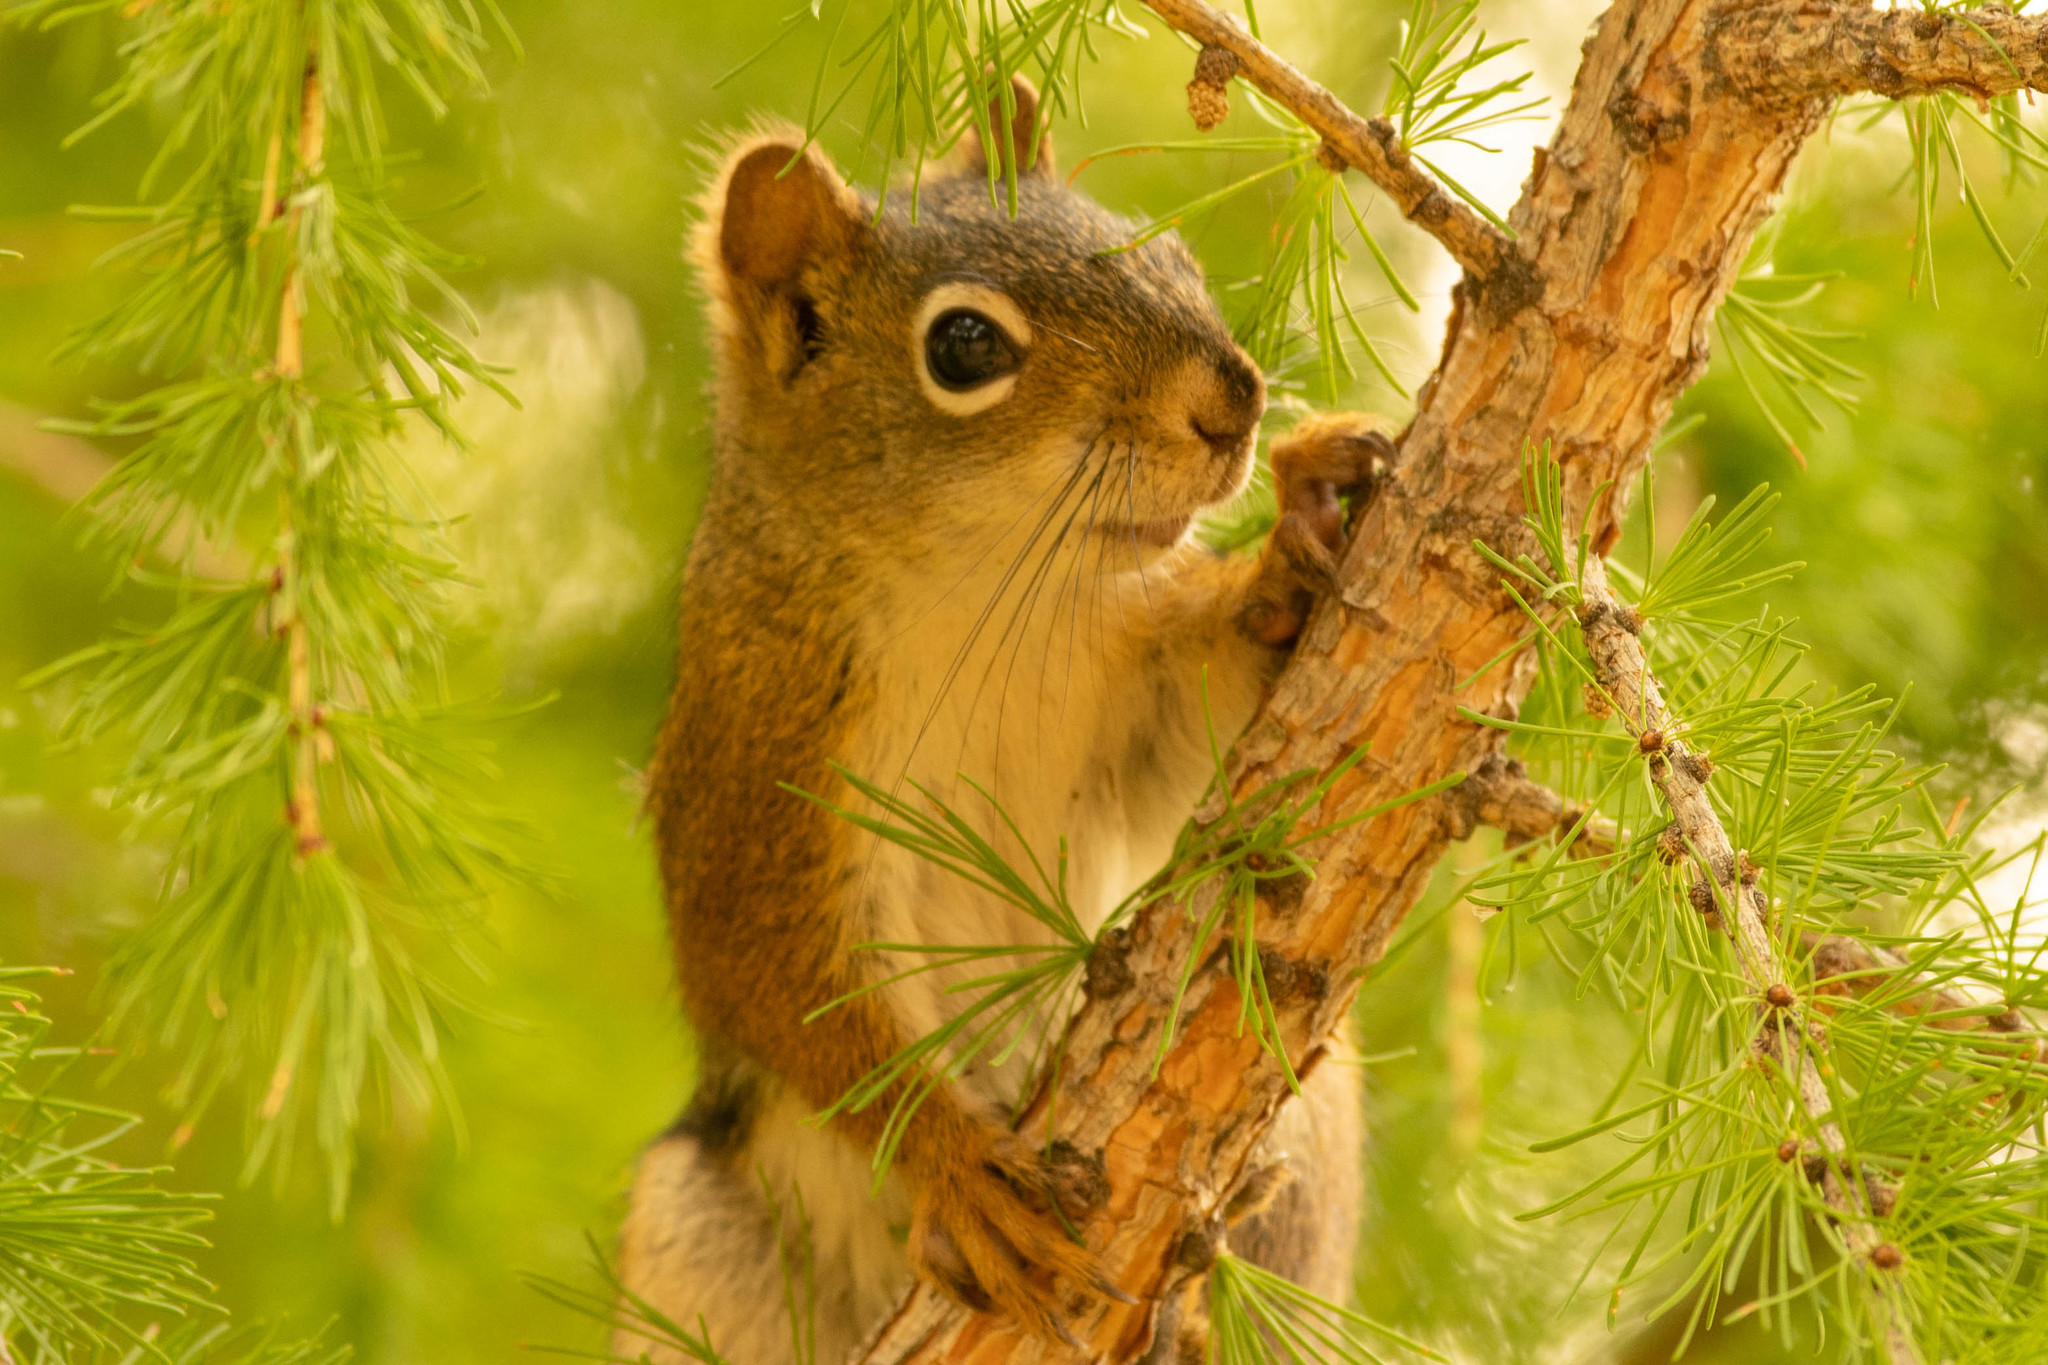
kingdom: Animalia
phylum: Chordata
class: Mammalia
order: Rodentia
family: Sciuridae
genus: Tamiasciurus
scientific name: Tamiasciurus hudsonicus
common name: Red squirrel
